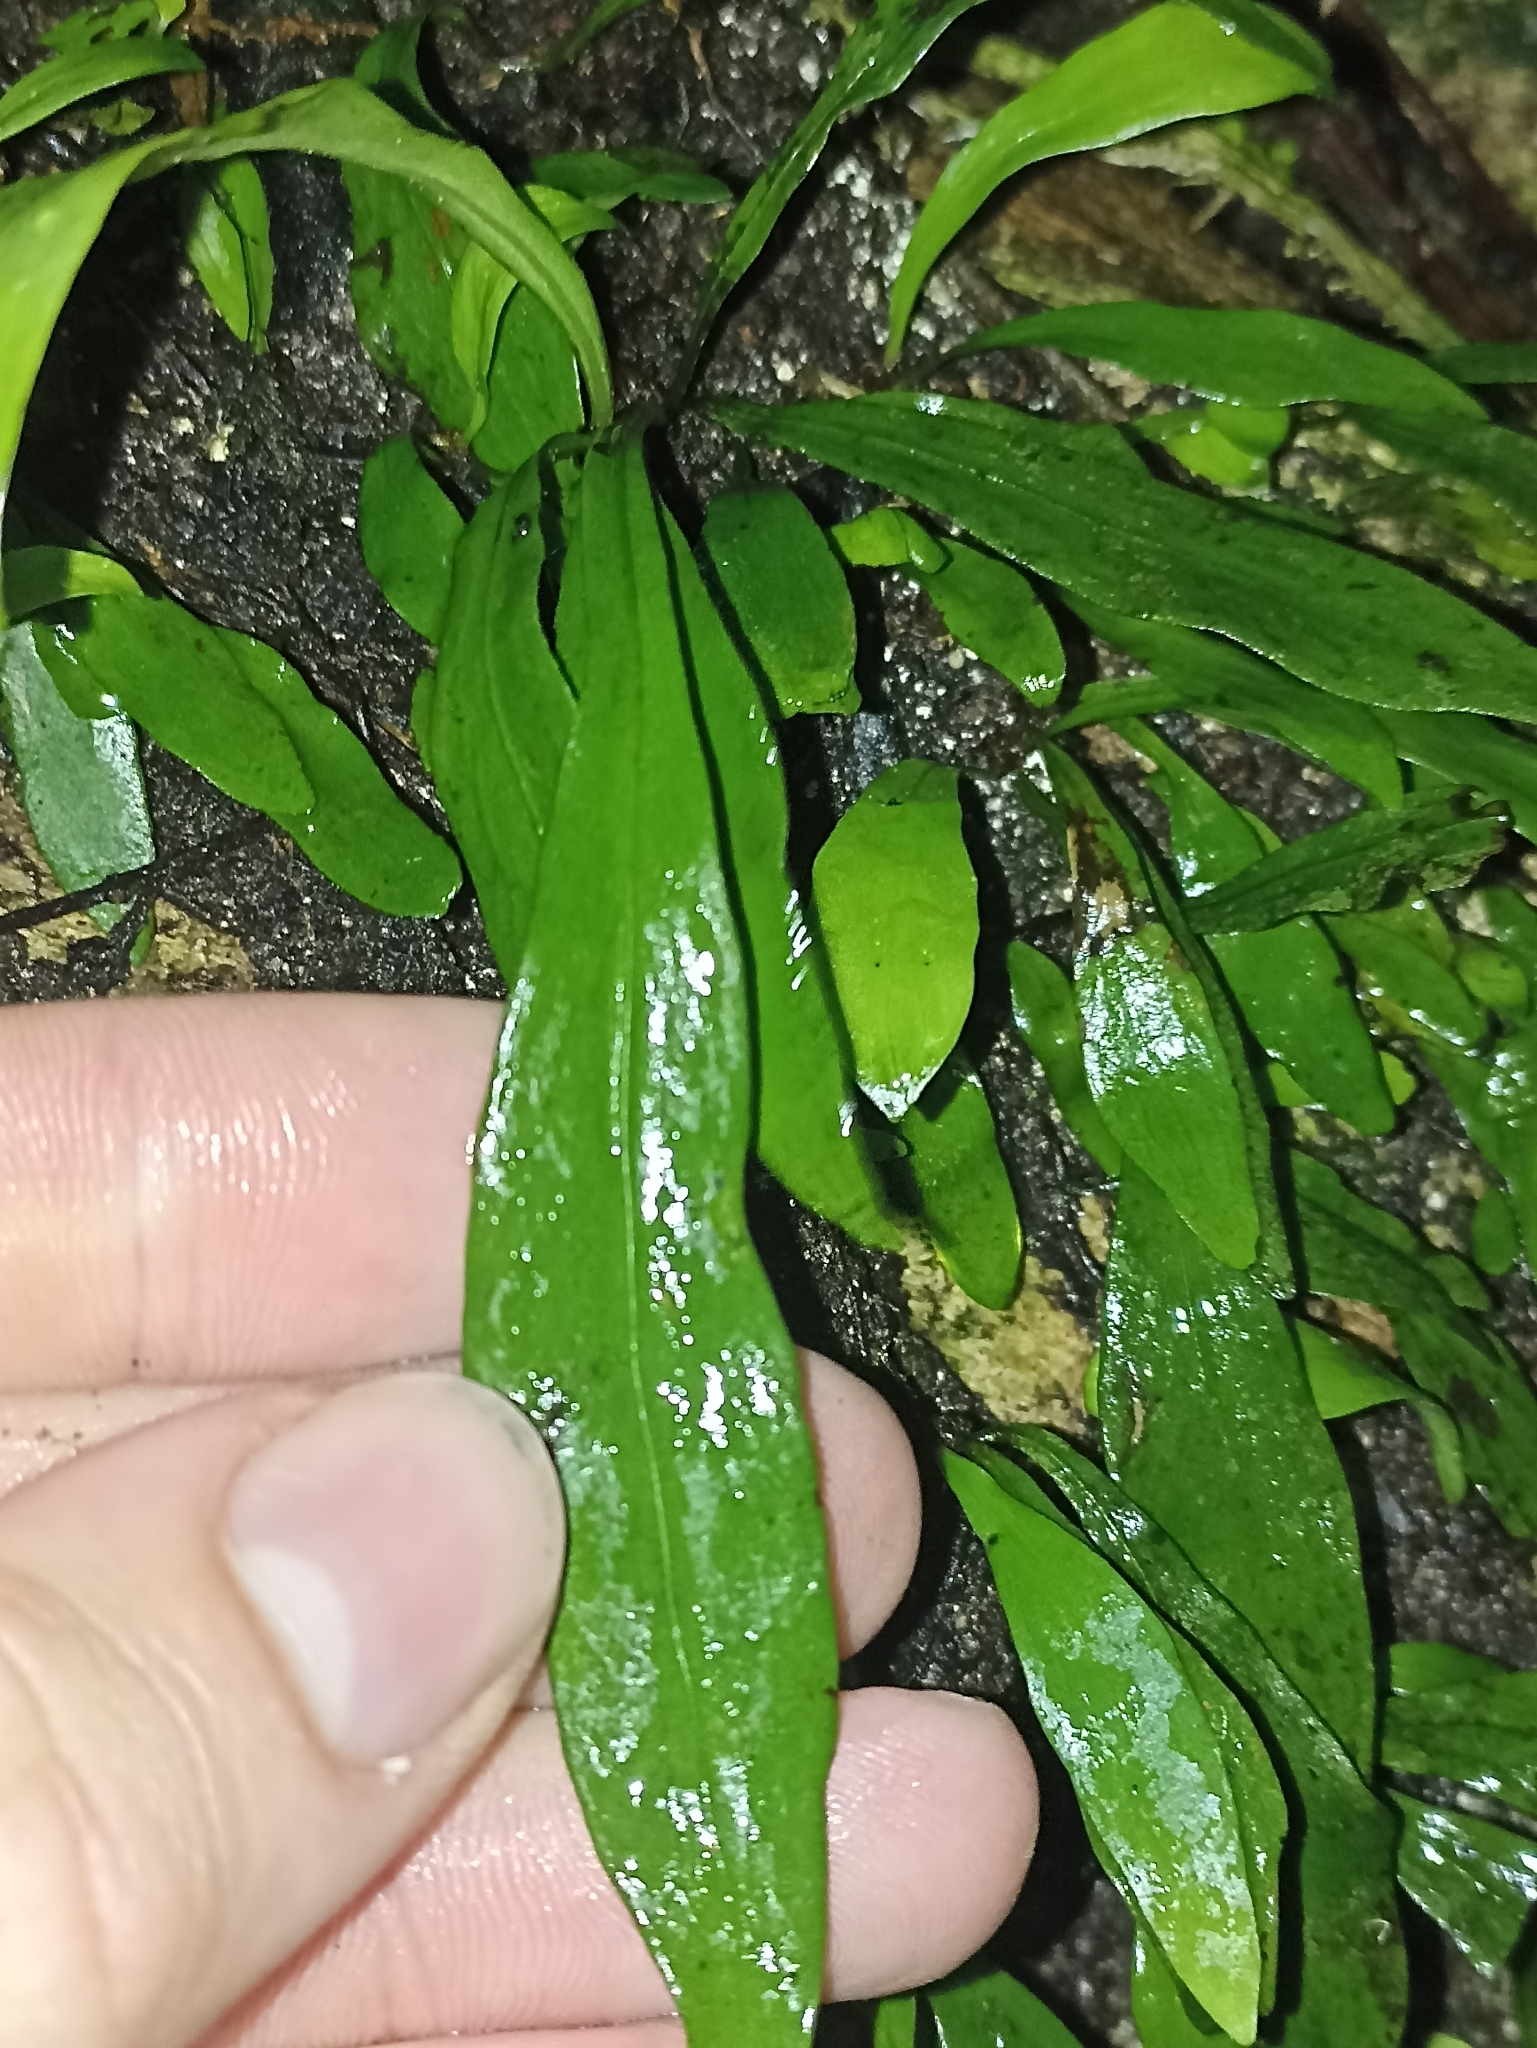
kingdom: Plantae
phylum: Tracheophyta
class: Polypodiopsida
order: Polypodiales
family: Polypodiaceae
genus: Loxogramme
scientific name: Loxogramme dictyopteris
